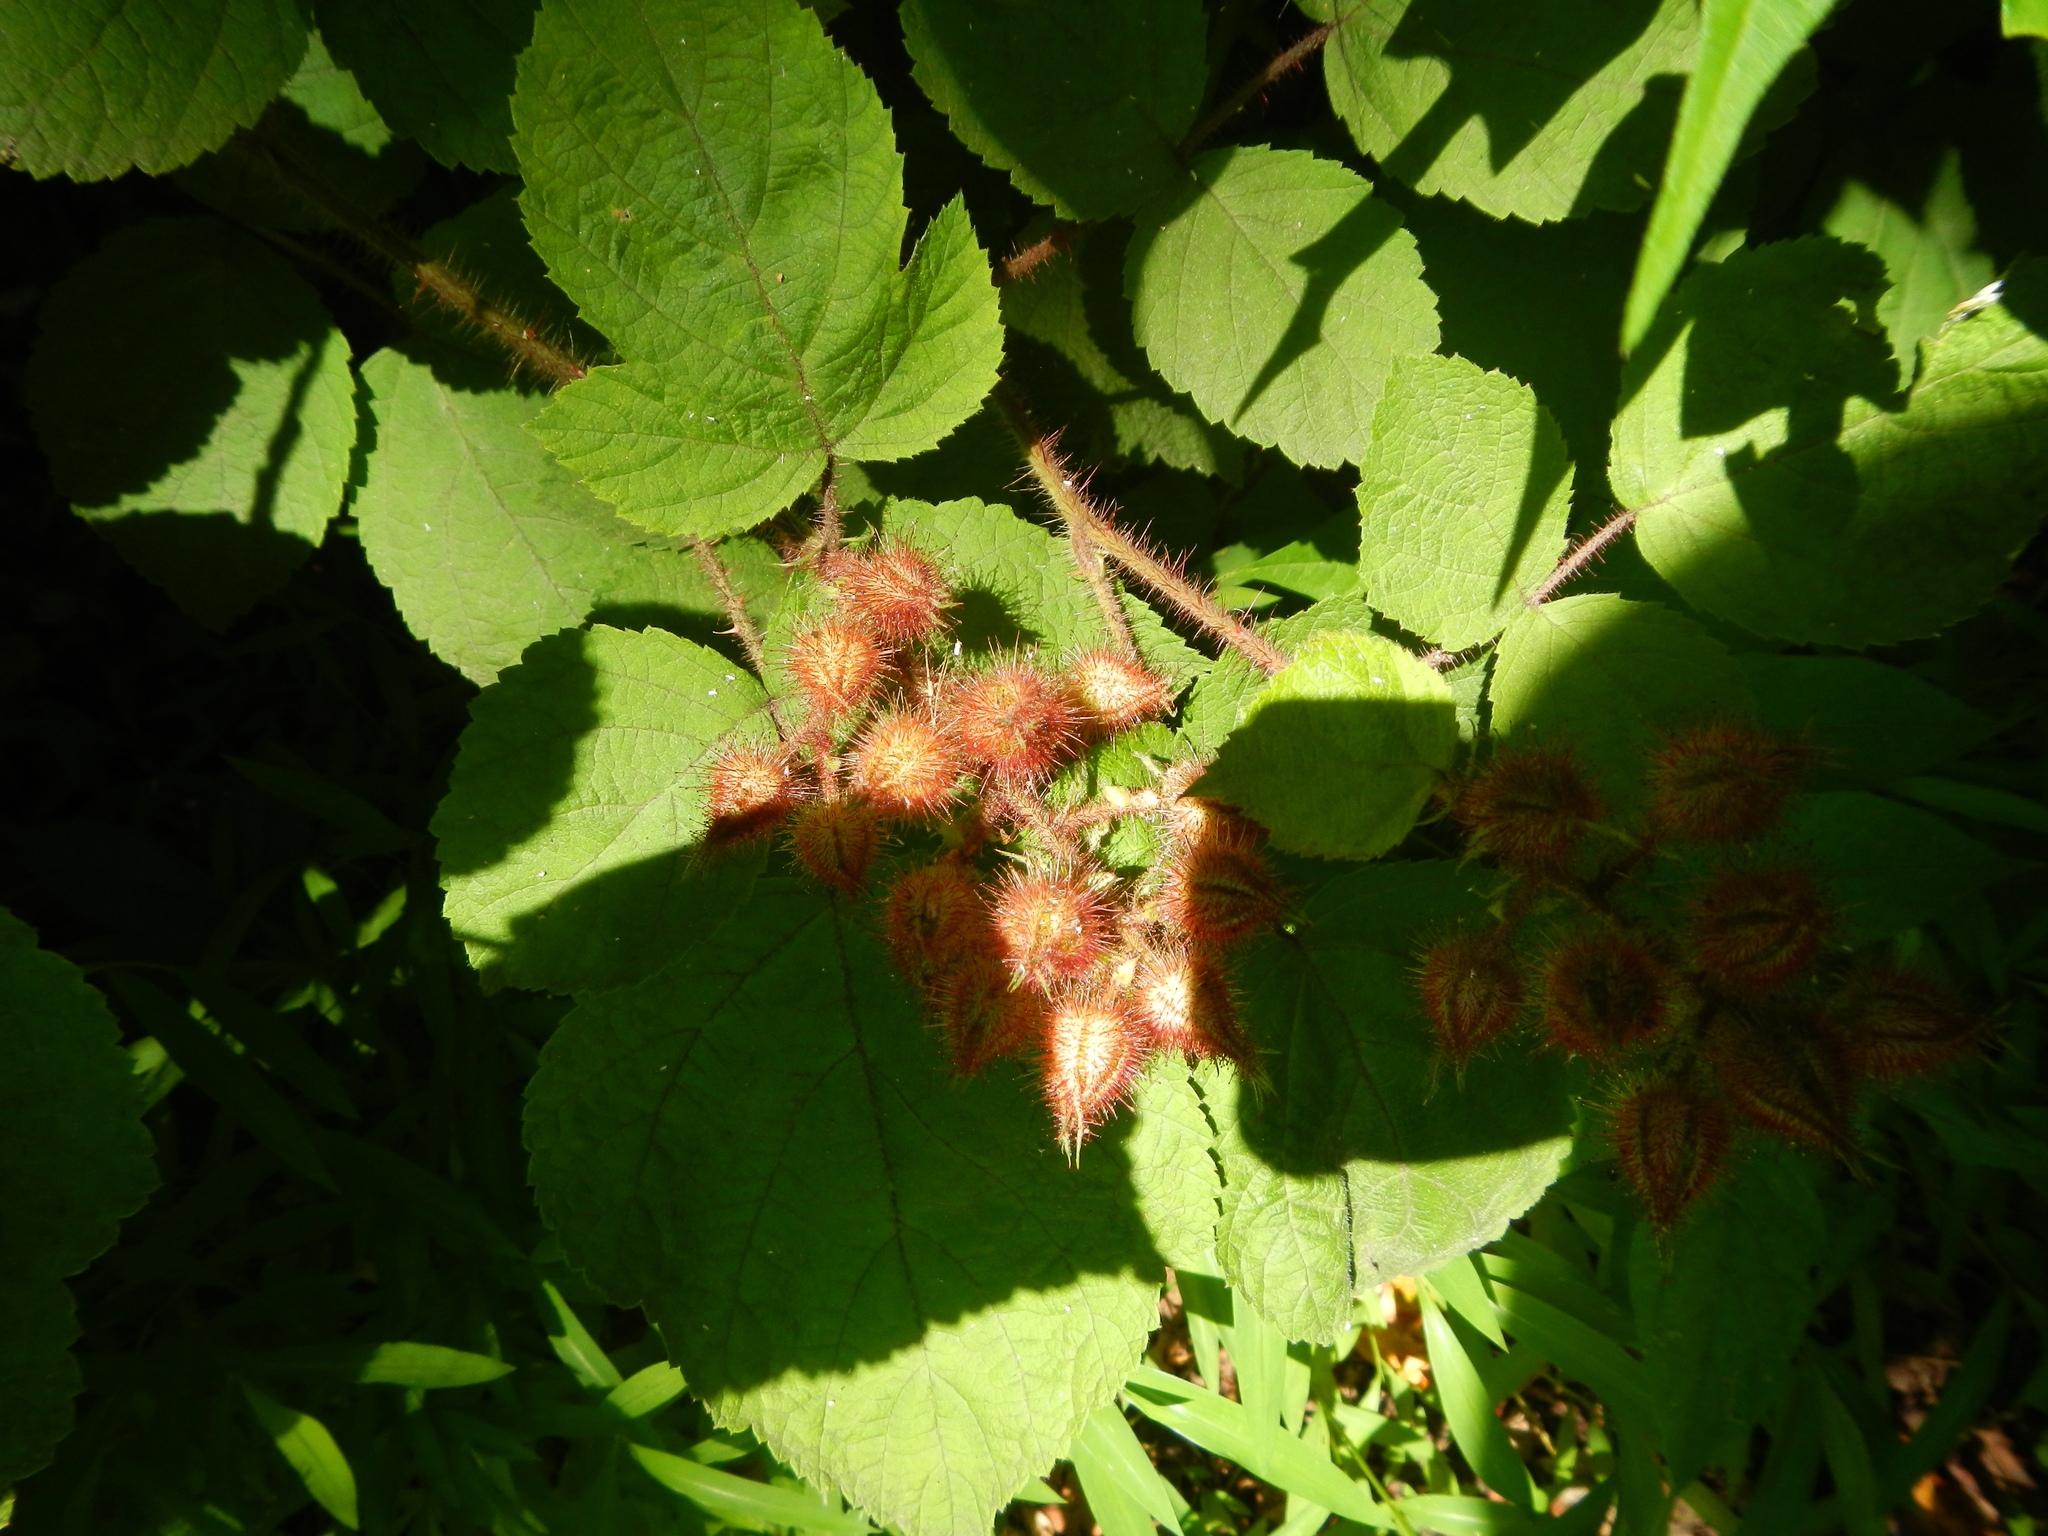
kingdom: Plantae
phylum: Tracheophyta
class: Magnoliopsida
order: Rosales
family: Rosaceae
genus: Rubus
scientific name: Rubus phoenicolasius
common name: Japanese wineberry
